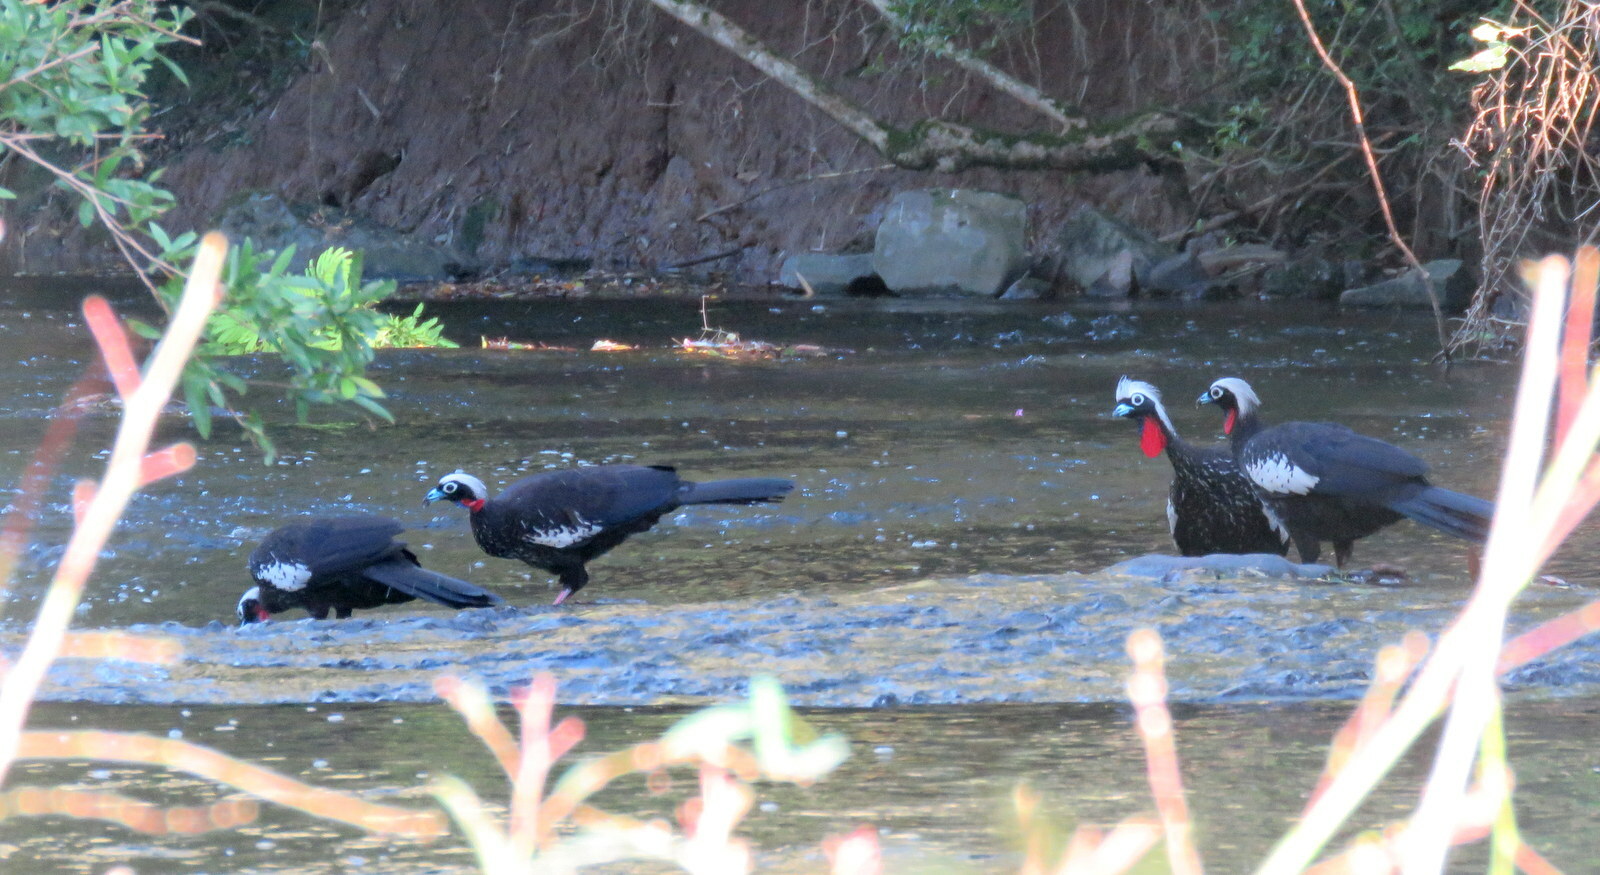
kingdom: Animalia
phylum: Chordata
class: Aves
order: Galliformes
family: Cracidae
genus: Pipile
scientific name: Pipile jacutinga
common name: Black-fronted piping-guan
